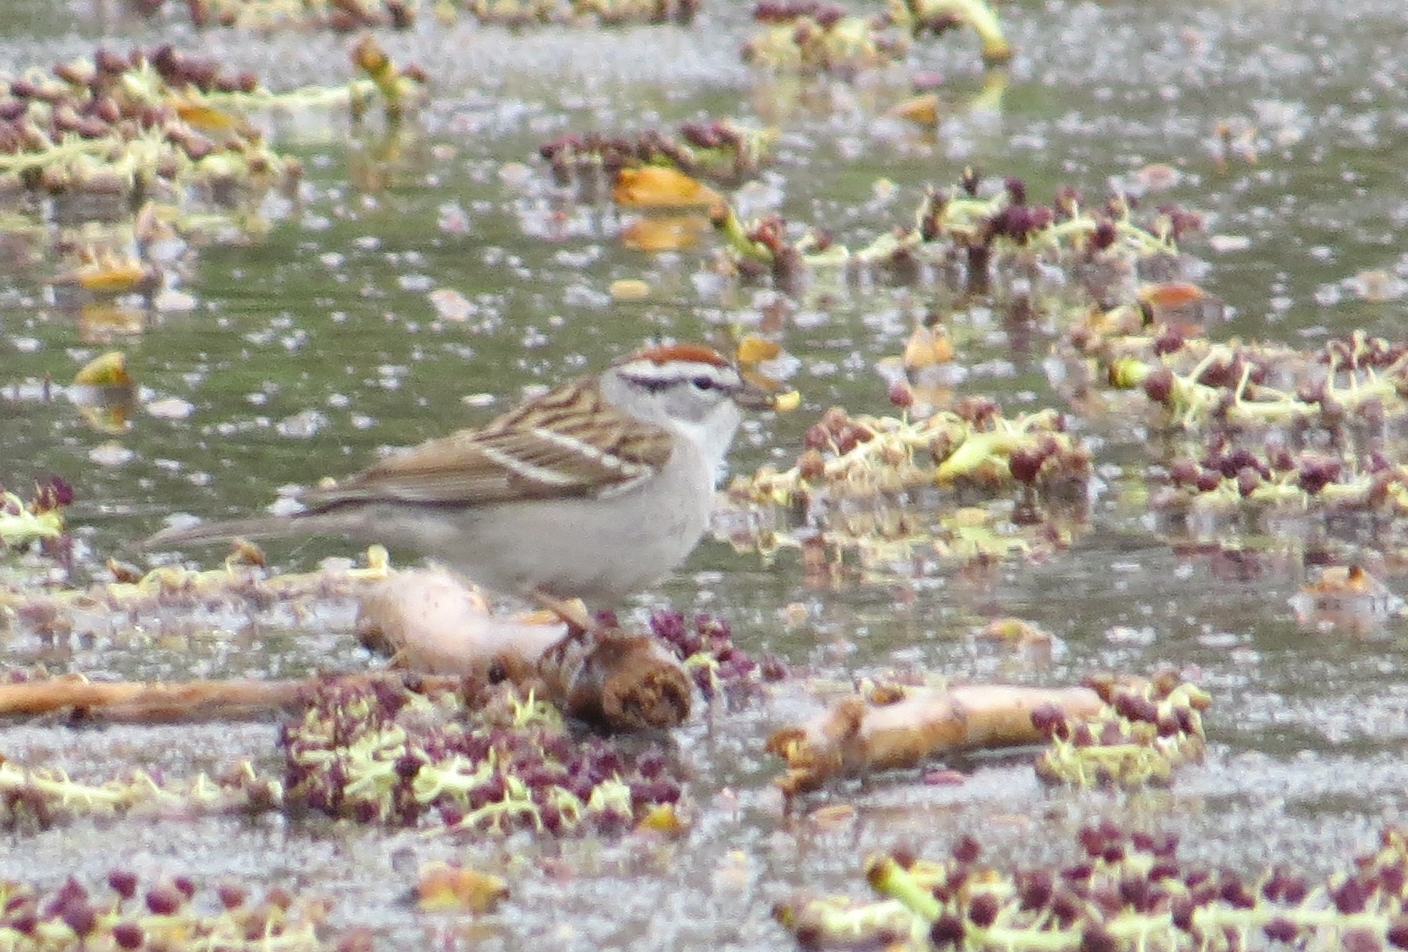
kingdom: Animalia
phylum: Chordata
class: Aves
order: Passeriformes
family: Passerellidae
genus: Spizella
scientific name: Spizella passerina
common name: Chipping sparrow
